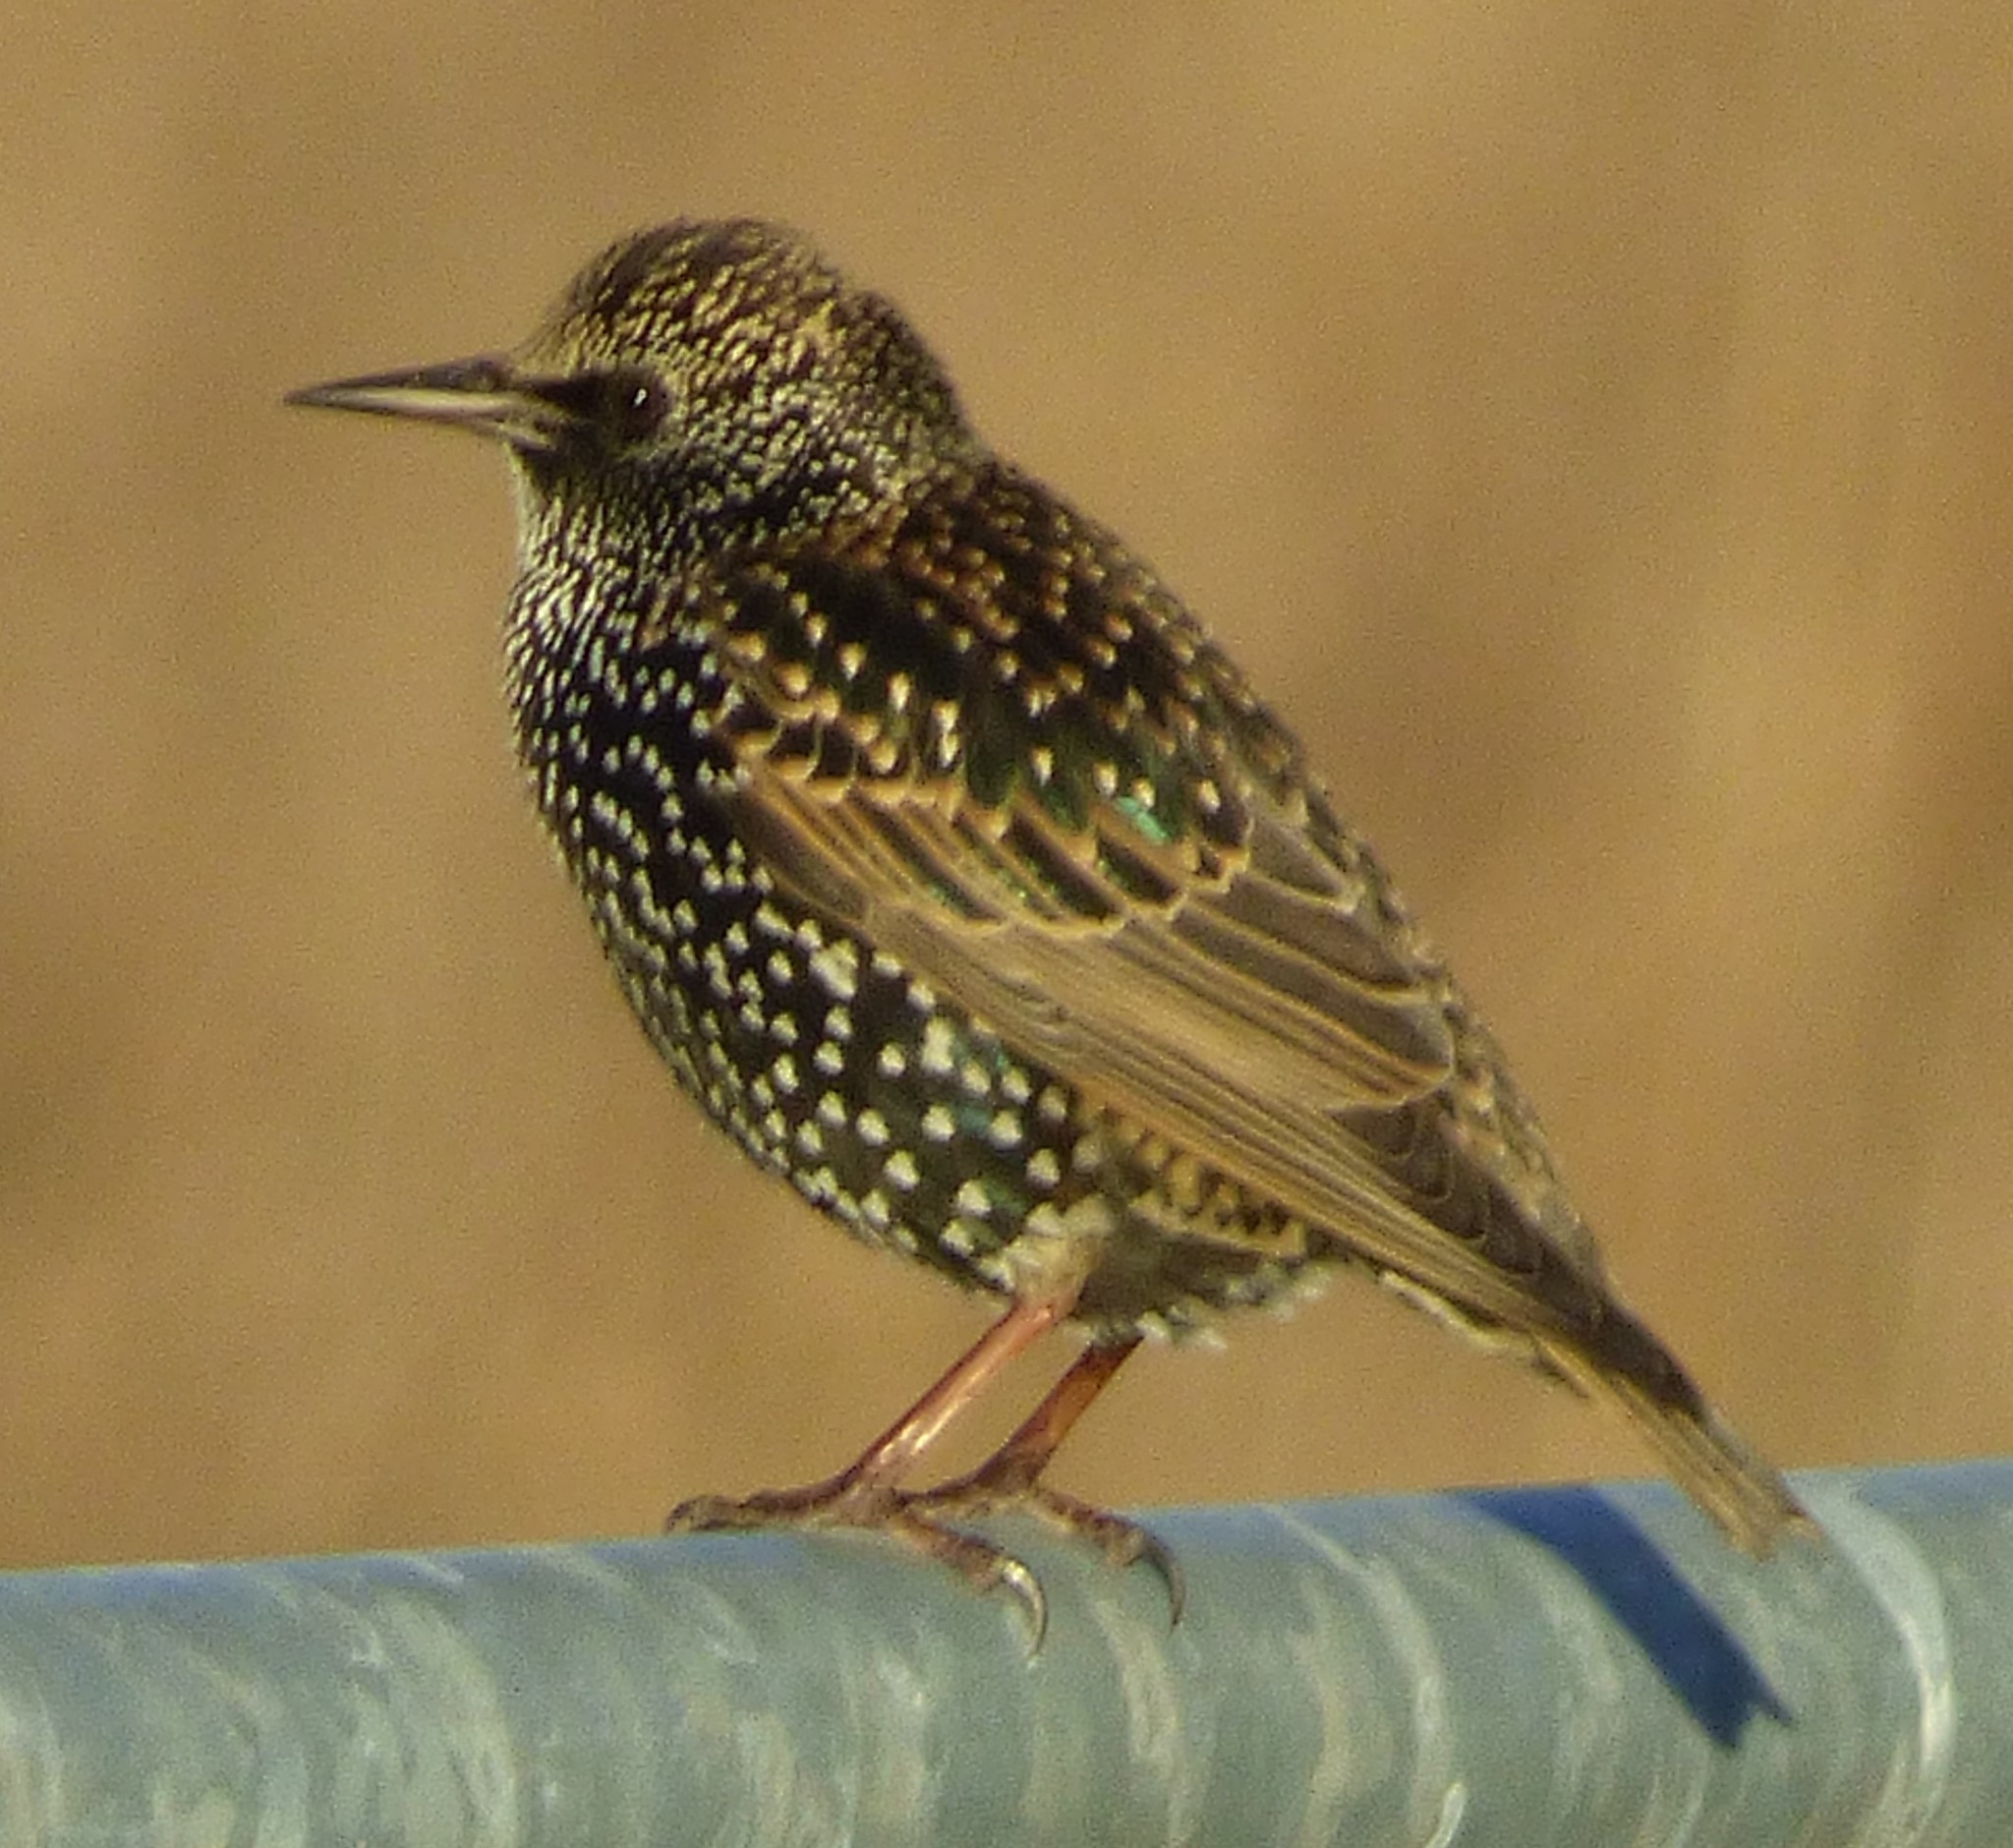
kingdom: Animalia
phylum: Chordata
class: Aves
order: Passeriformes
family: Sturnidae
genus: Sturnus
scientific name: Sturnus vulgaris
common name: Common starling
